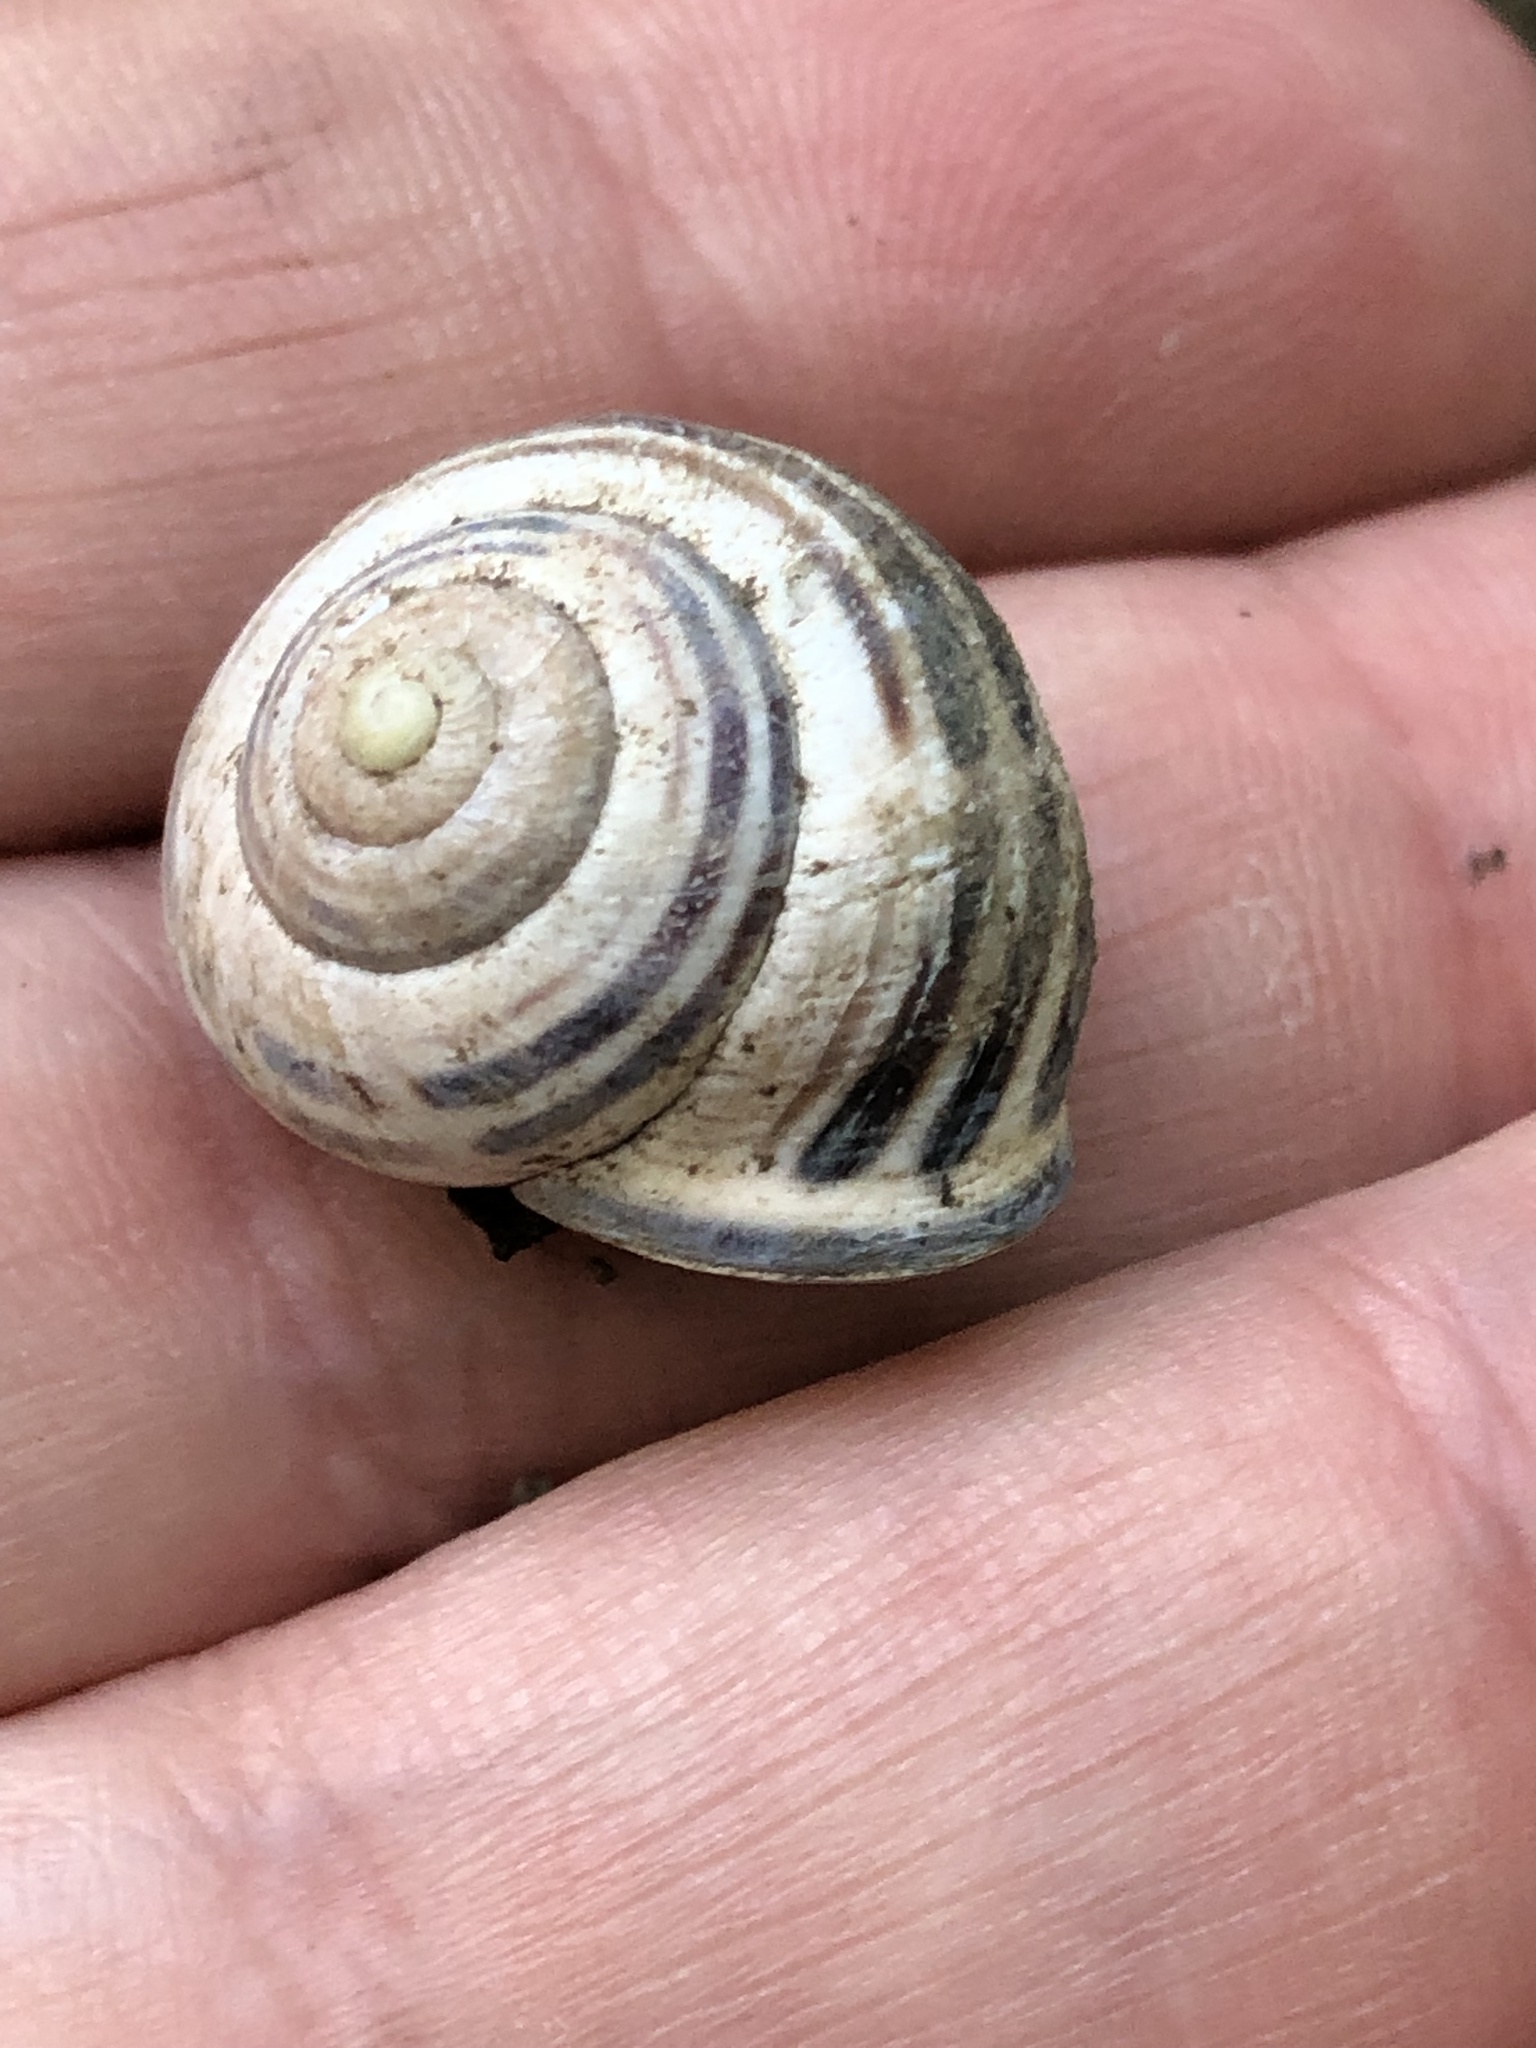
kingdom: Animalia
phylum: Mollusca
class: Gastropoda
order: Stylommatophora
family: Helicidae
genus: Cepaea
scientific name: Cepaea nemoralis
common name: Grovesnail
